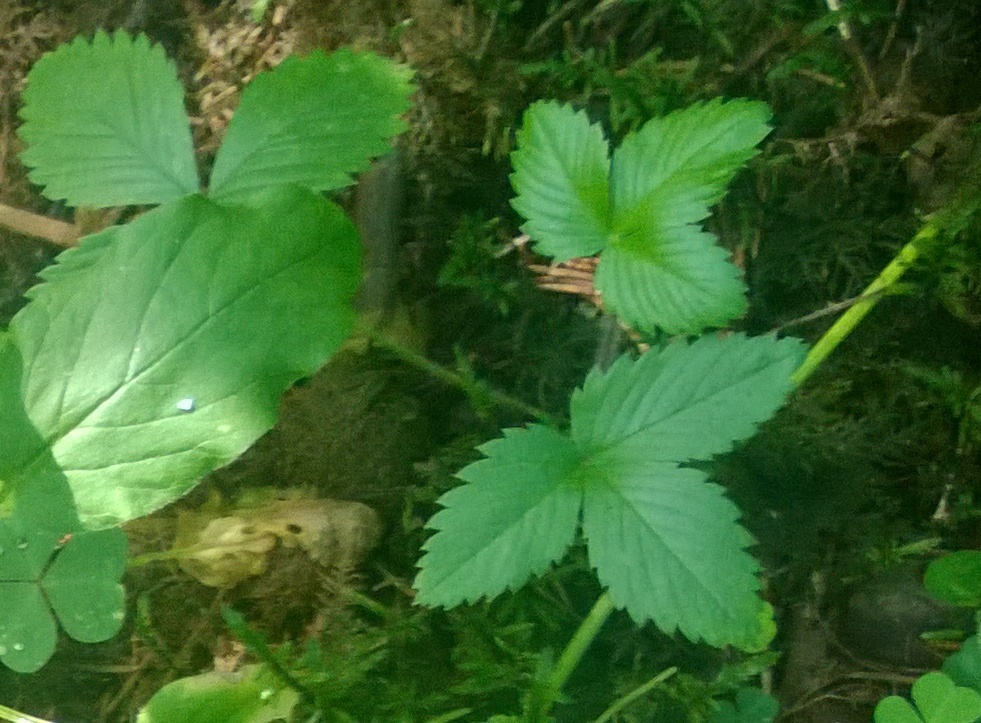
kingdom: Plantae
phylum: Tracheophyta
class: Magnoliopsida
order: Rosales
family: Rosaceae
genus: Fragaria
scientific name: Fragaria vesca
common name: Wild strawberry
